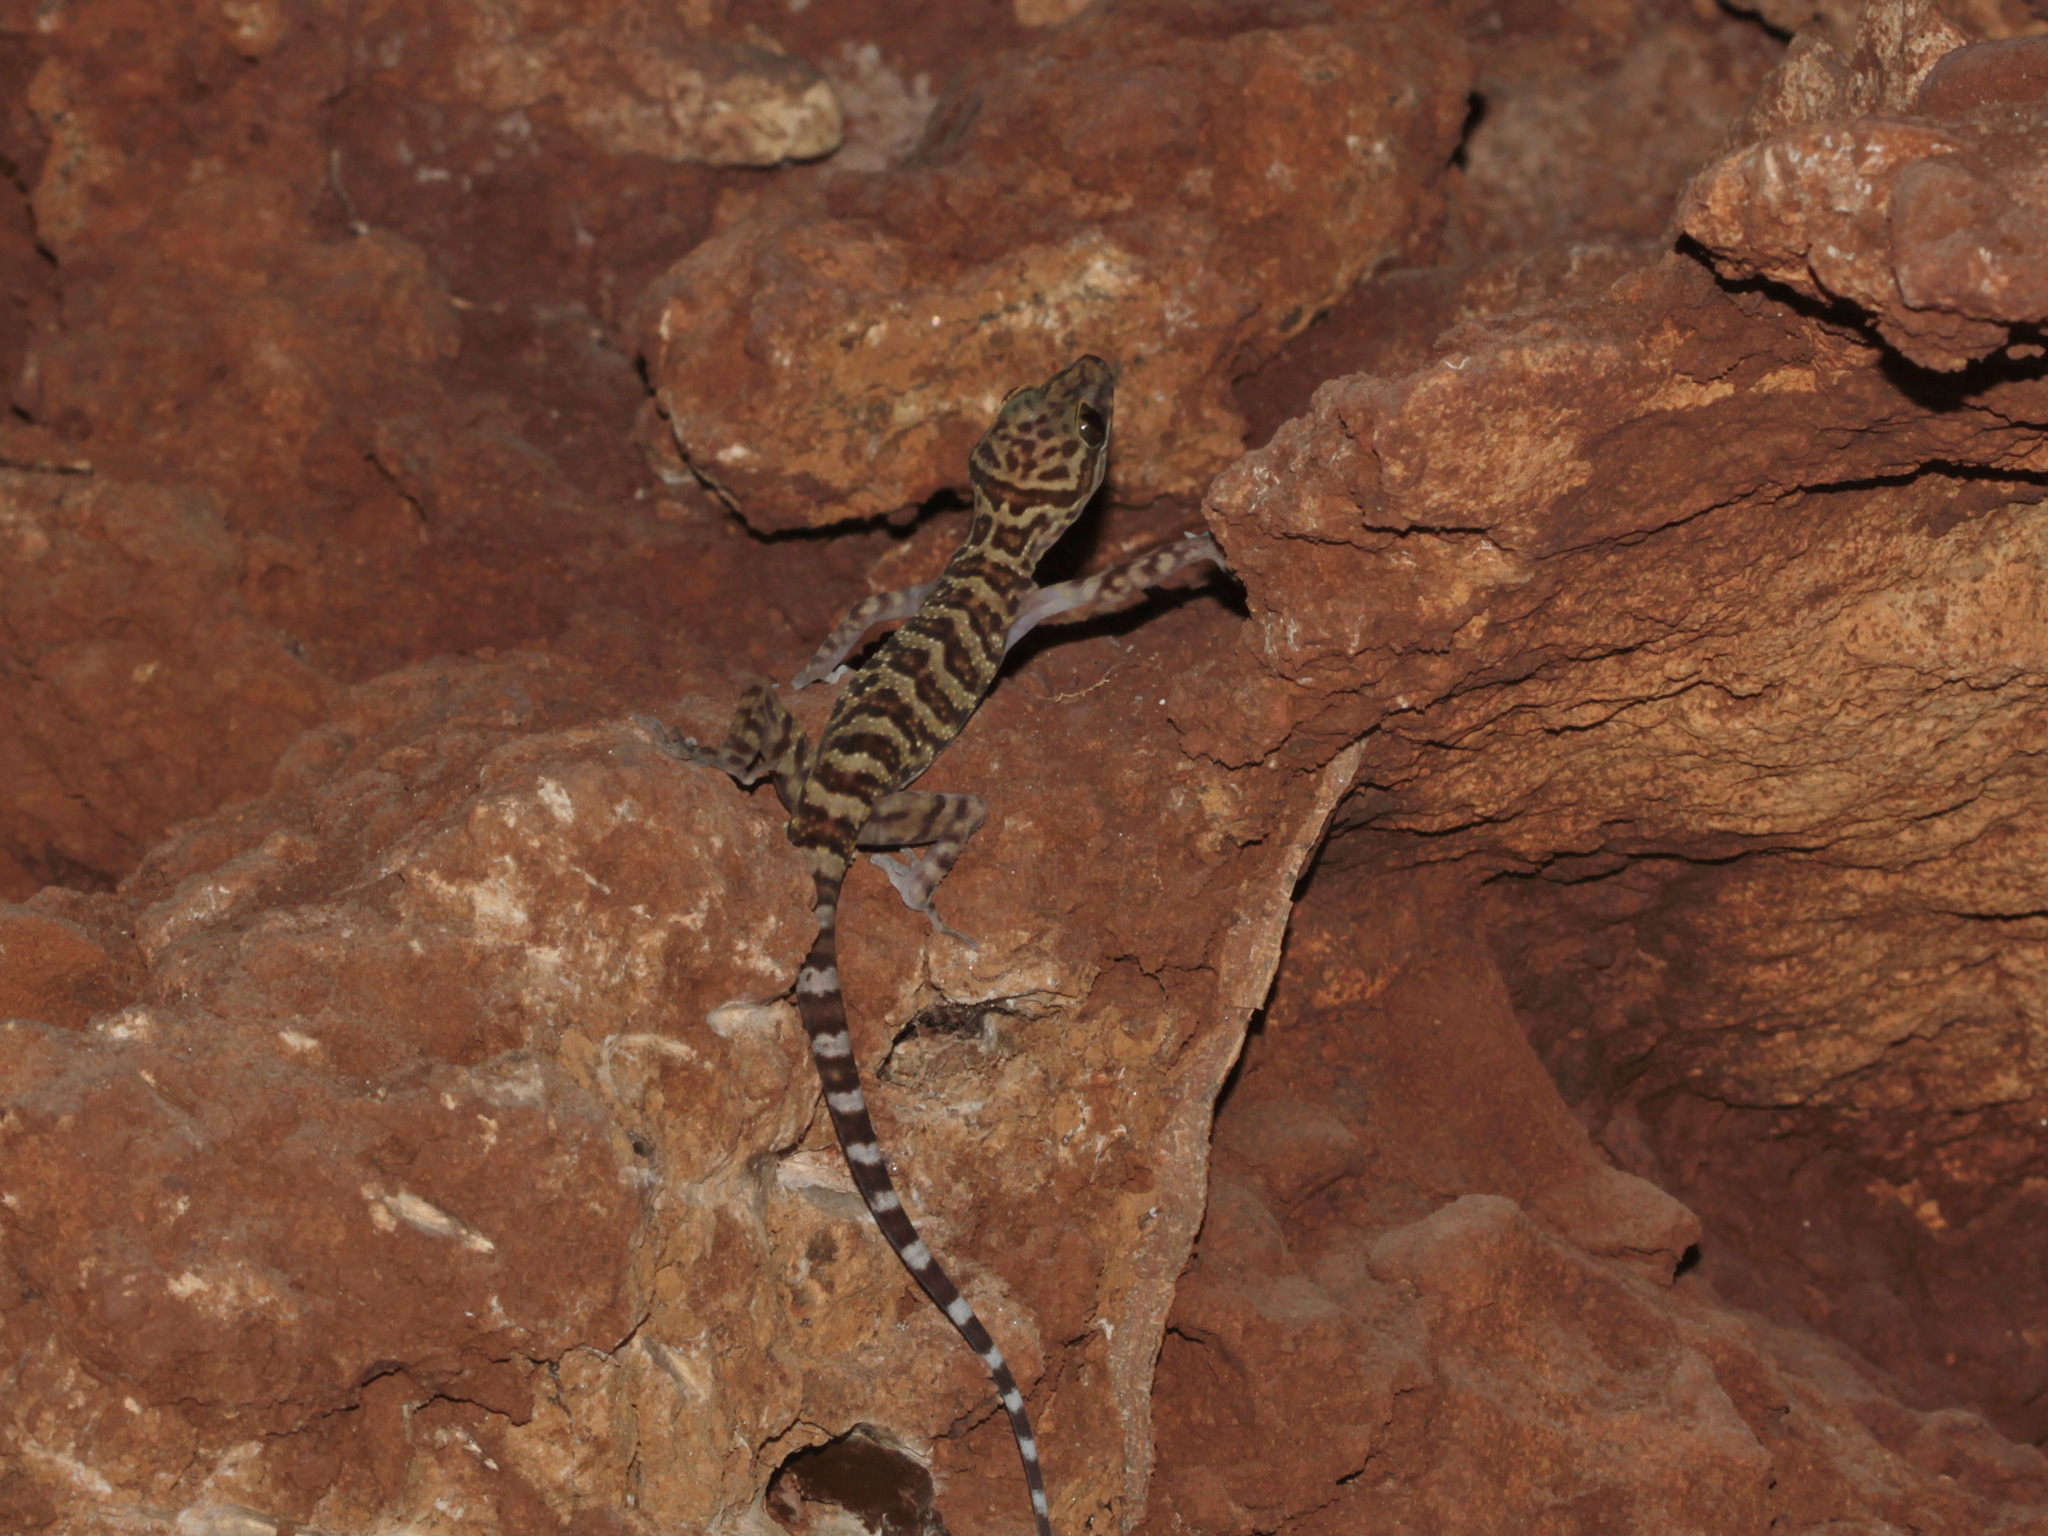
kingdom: Animalia
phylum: Chordata
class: Squamata
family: Gekkonidae
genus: Cyrtodactylus
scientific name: Cyrtodactylus dumnuii
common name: Dumnui’s bent-toed gecko
